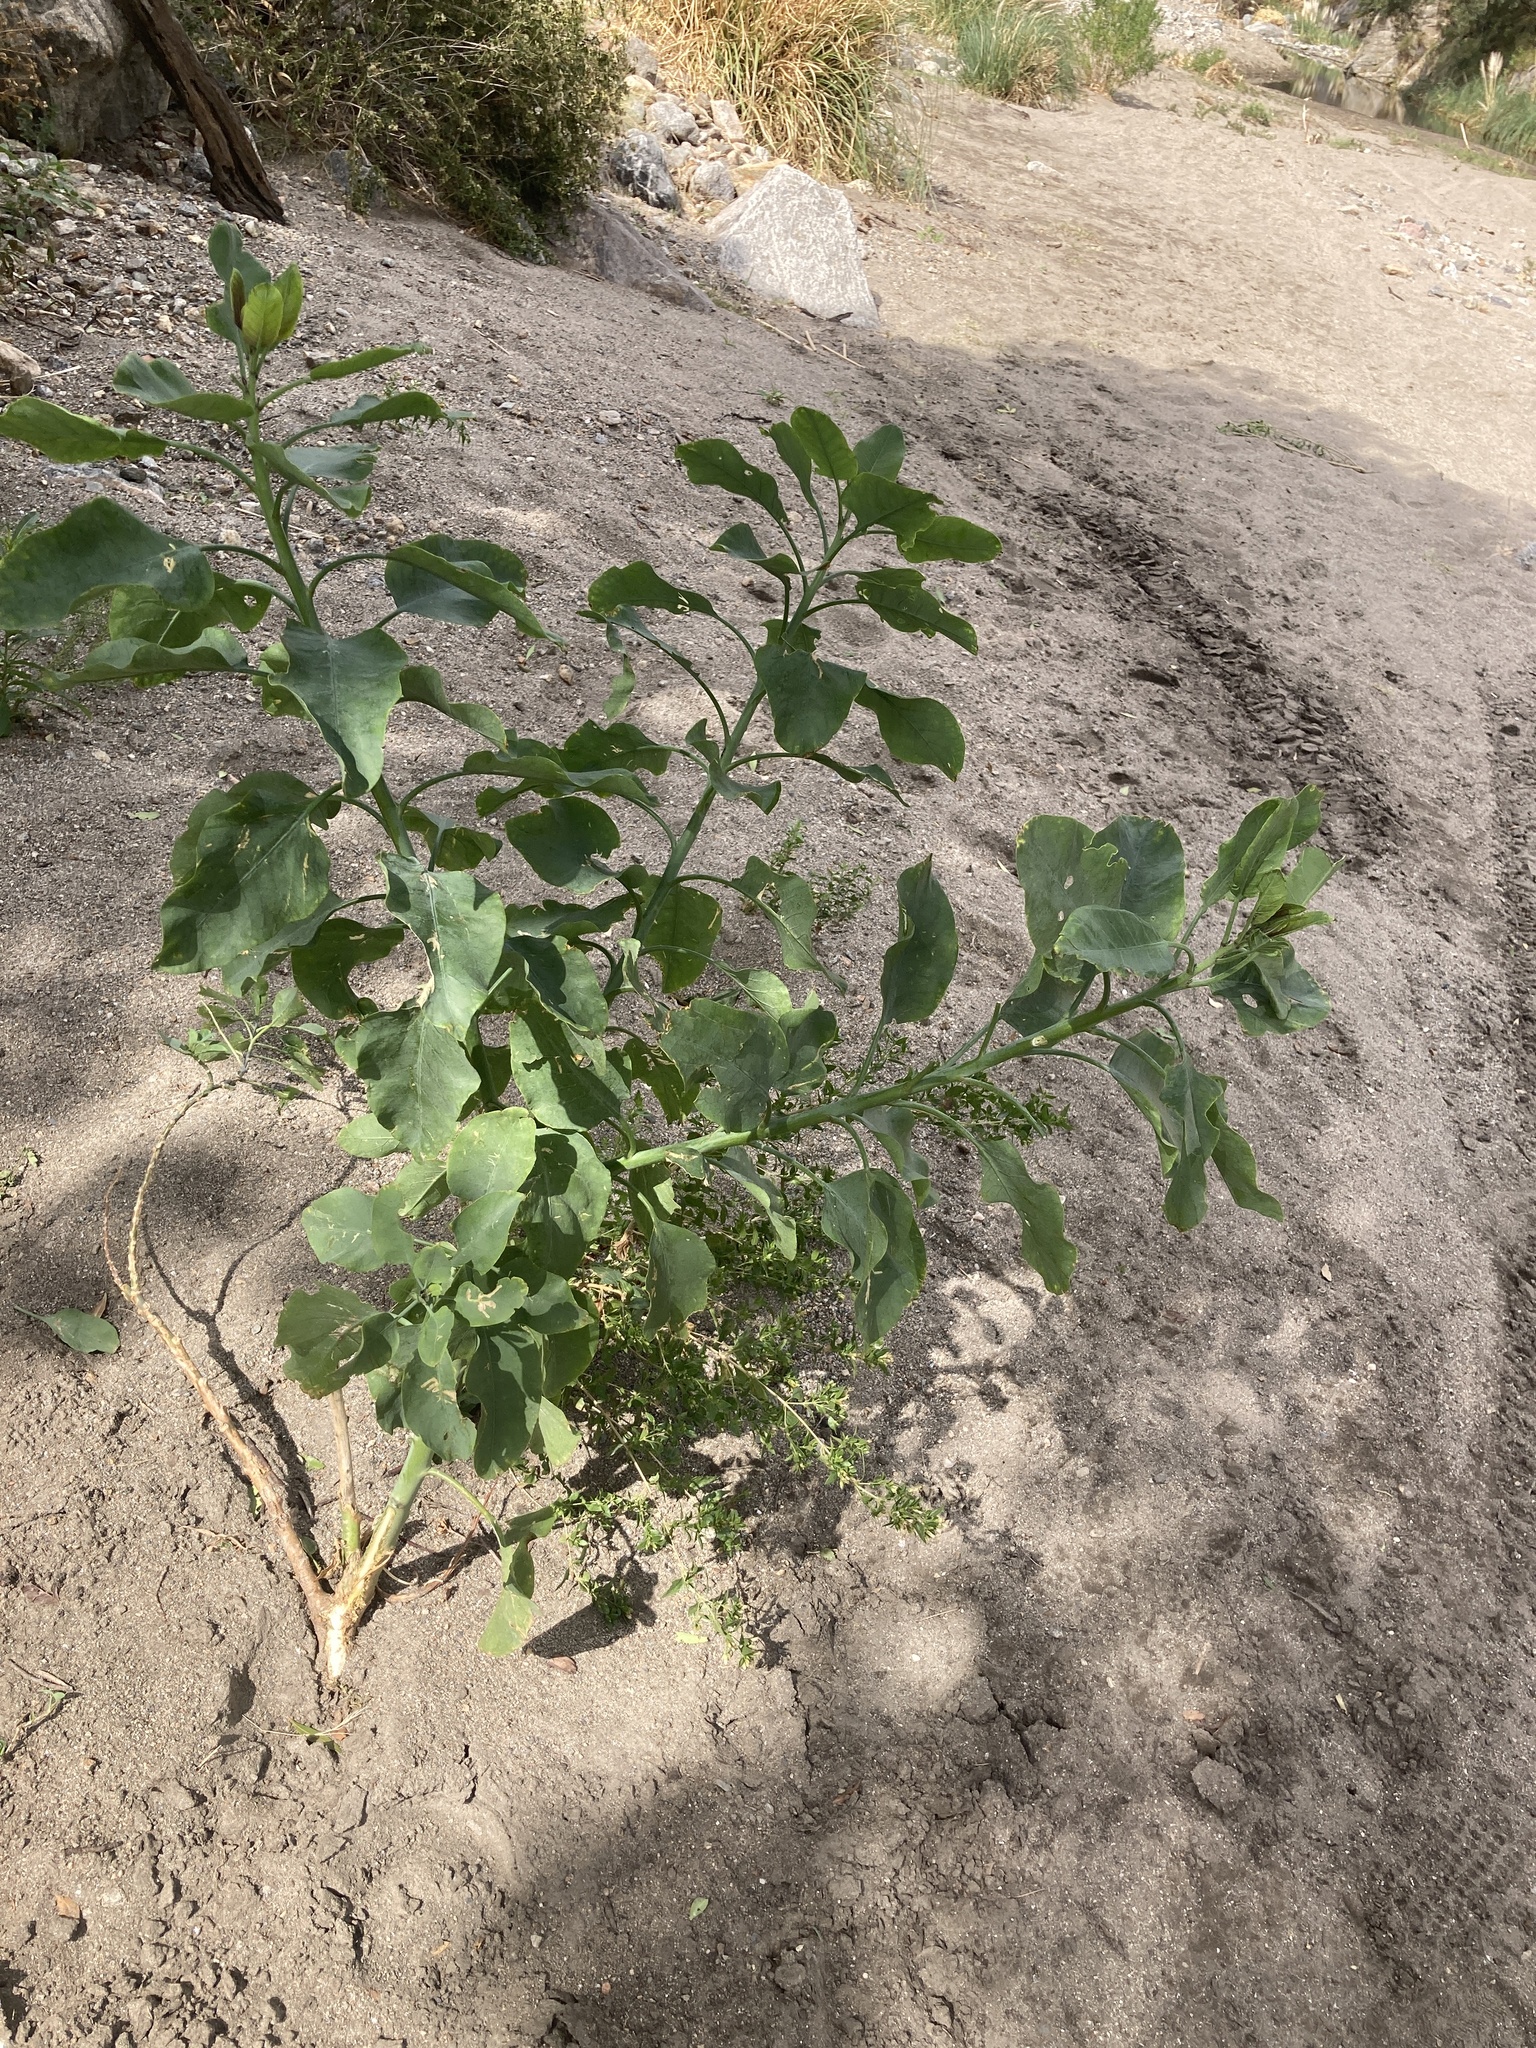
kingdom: Plantae
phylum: Tracheophyta
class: Magnoliopsida
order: Solanales
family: Solanaceae
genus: Nicotiana
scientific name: Nicotiana glauca
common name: Tree tobacco
